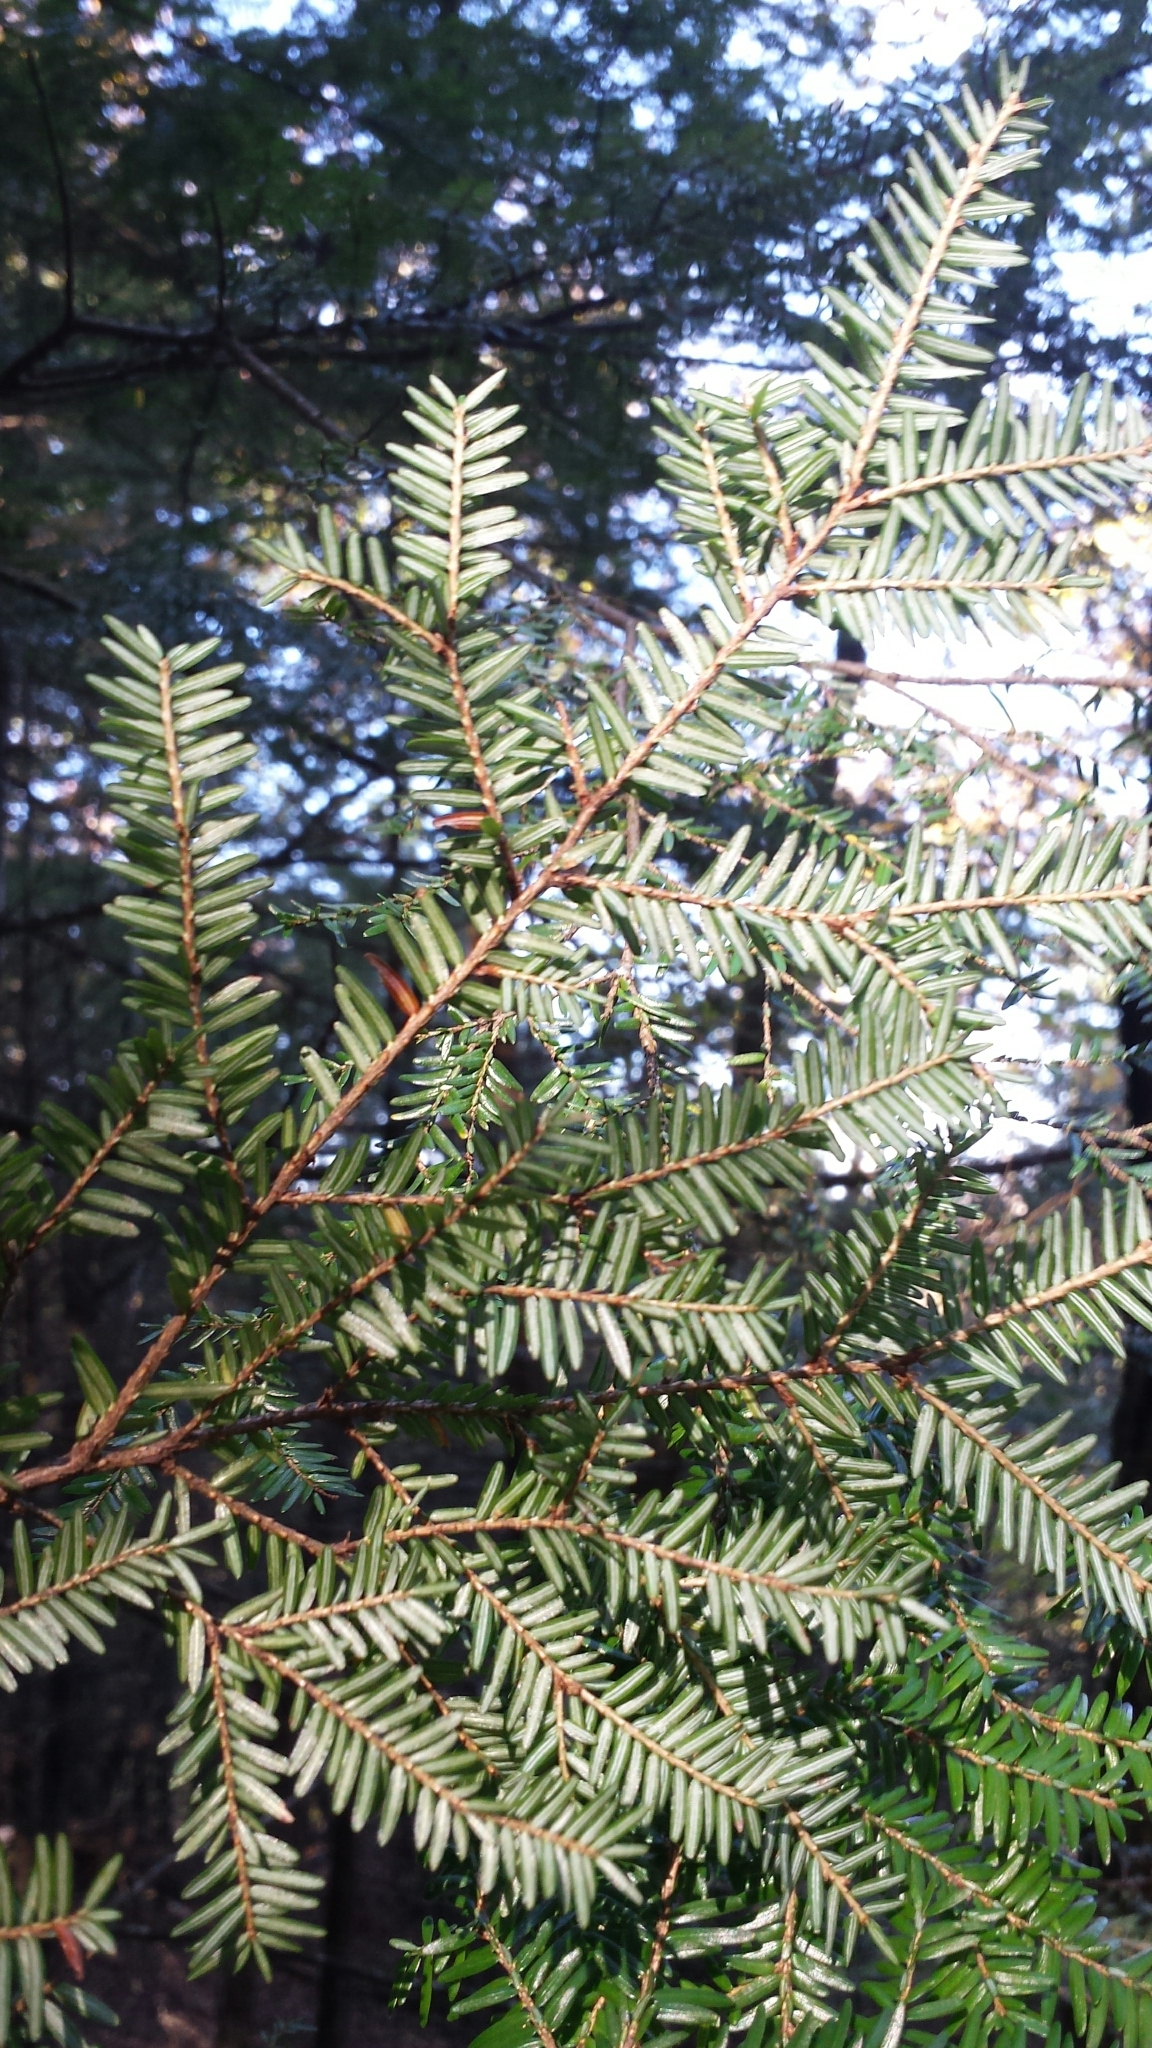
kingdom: Plantae
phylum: Tracheophyta
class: Pinopsida
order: Pinales
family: Pinaceae
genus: Tsuga
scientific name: Tsuga canadensis
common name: Eastern hemlock
